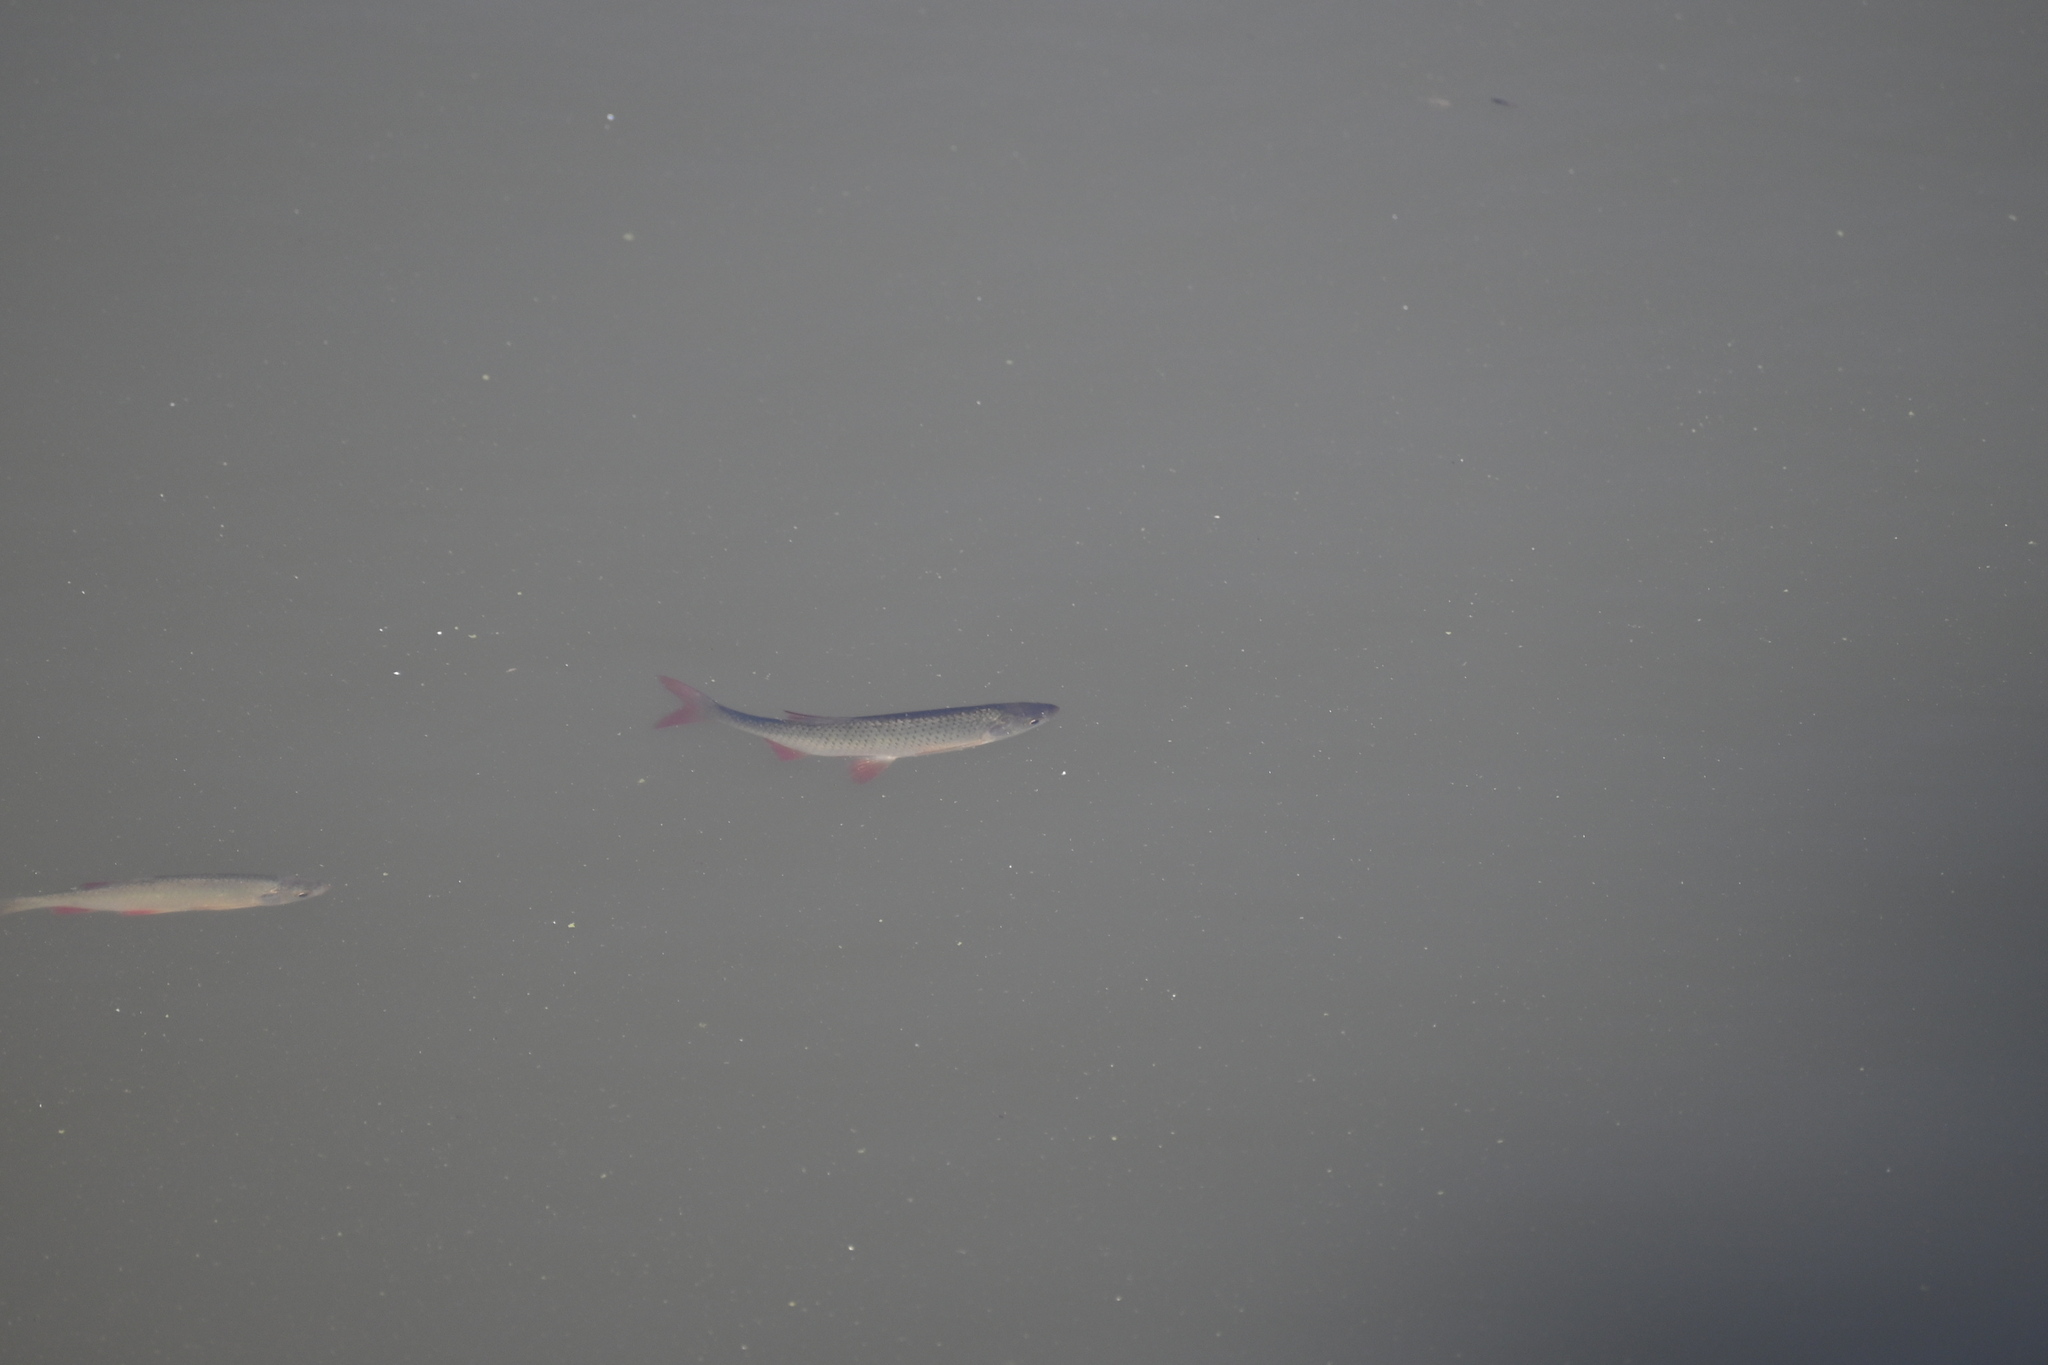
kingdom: Animalia
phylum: Chordata
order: Cypriniformes
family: Cyprinidae
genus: Scardinius
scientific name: Scardinius erythrophthalmus
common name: Rudd
